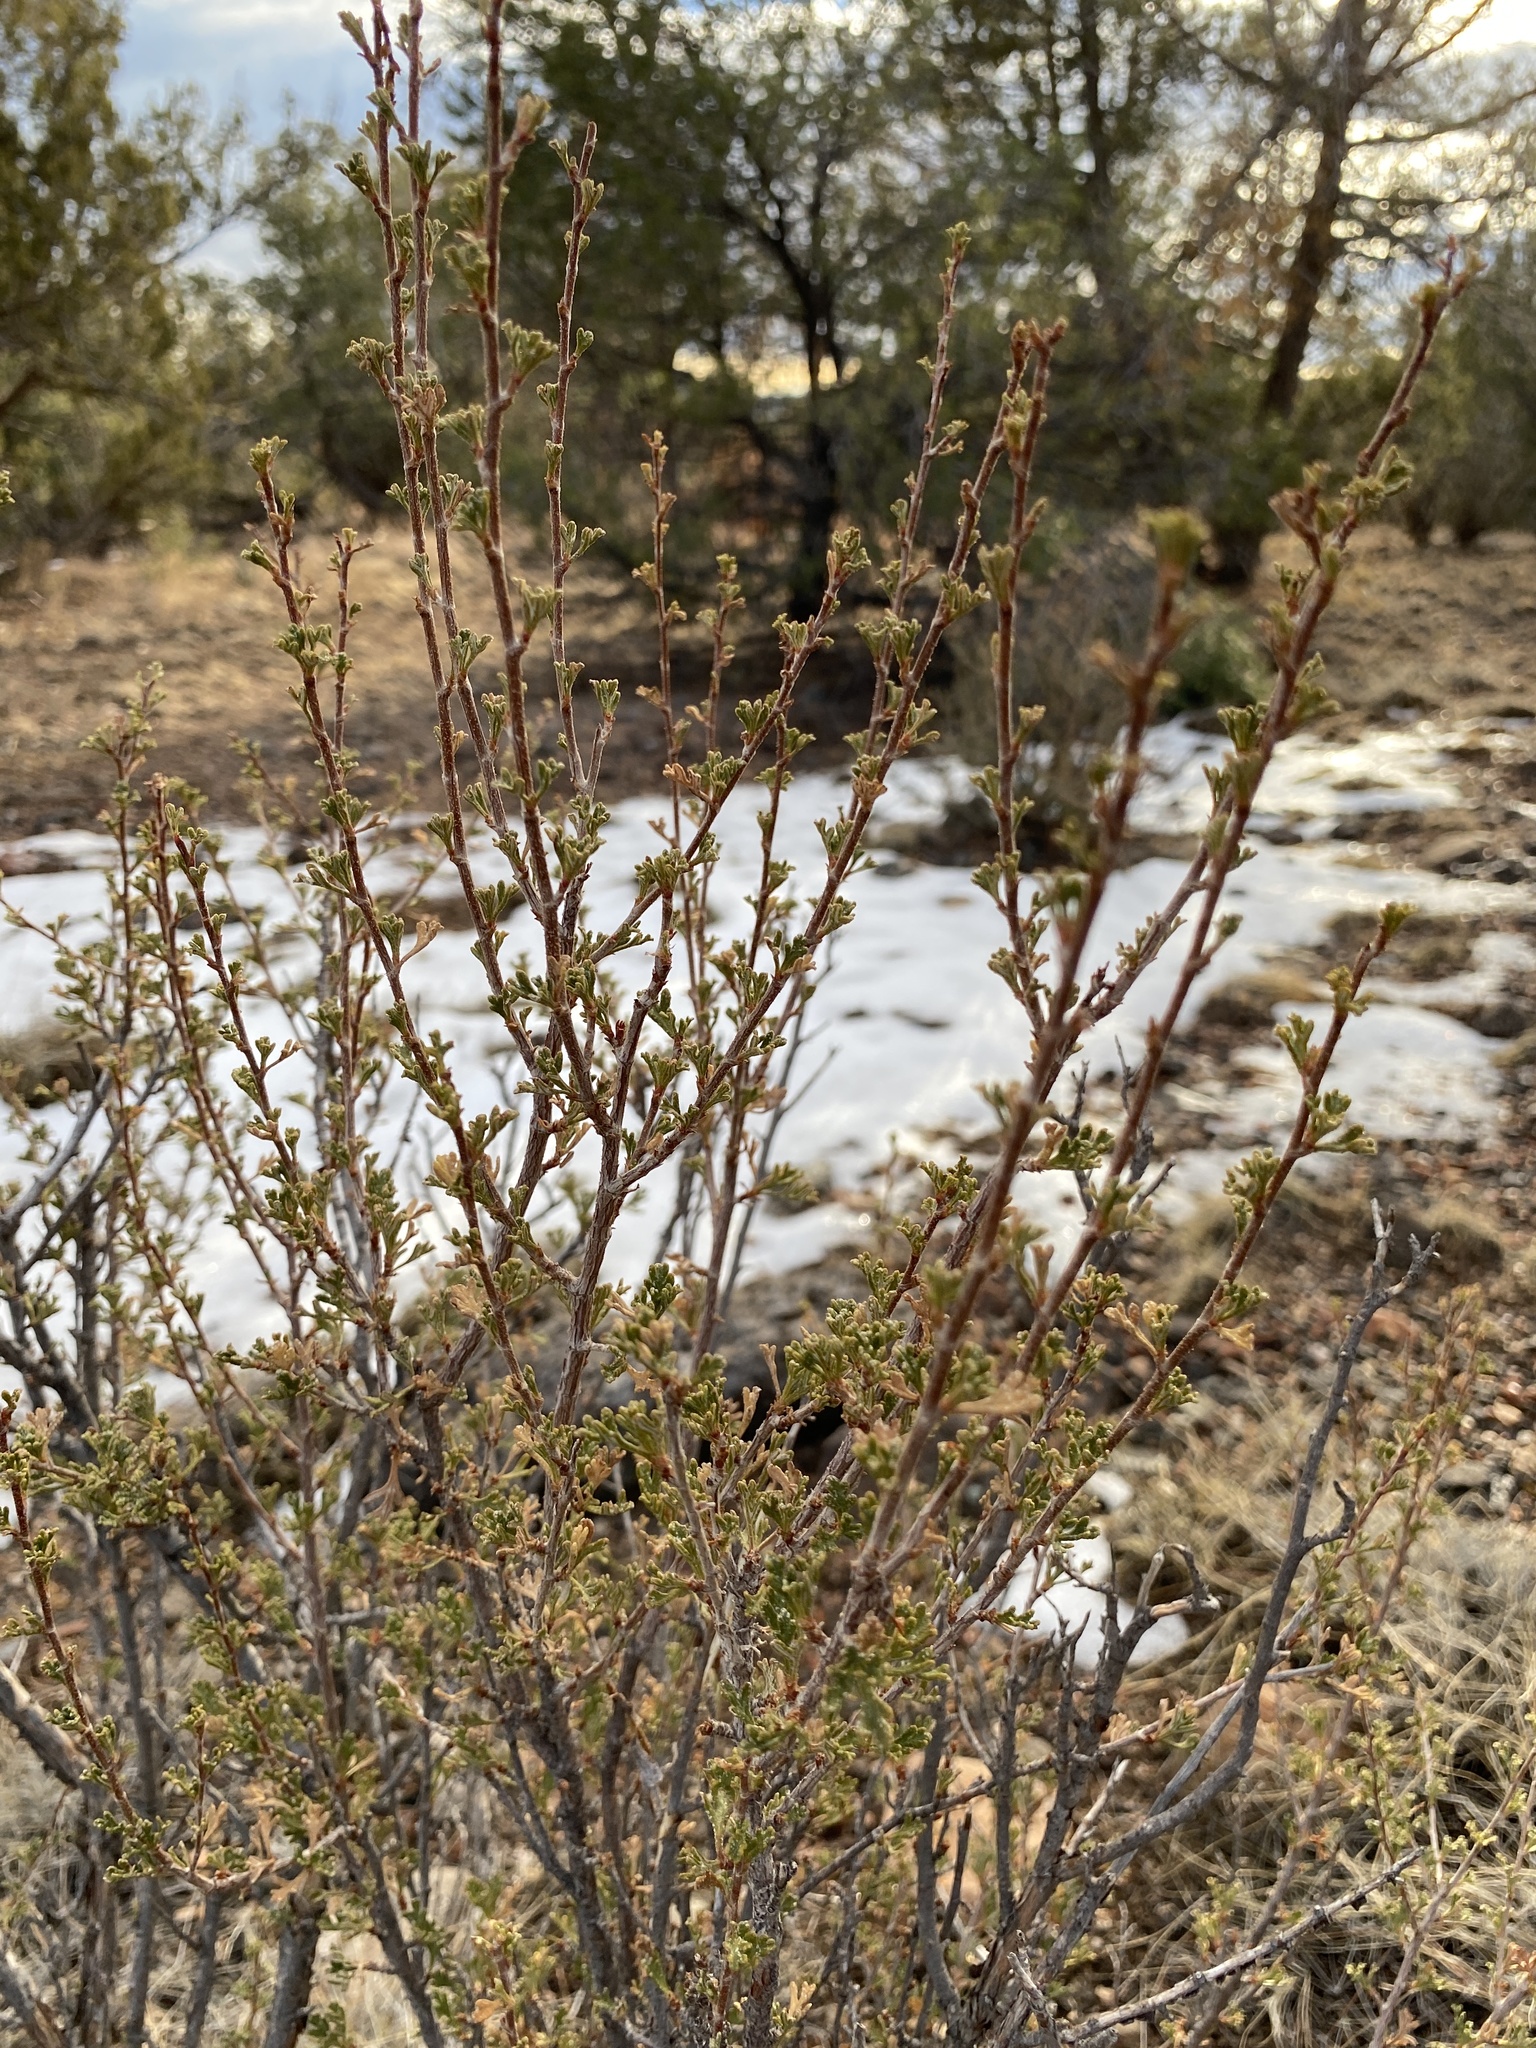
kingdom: Plantae
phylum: Tracheophyta
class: Magnoliopsida
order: Rosales
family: Rosaceae
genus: Purshia
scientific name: Purshia stansburiana
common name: Stansbury's cliffrose
